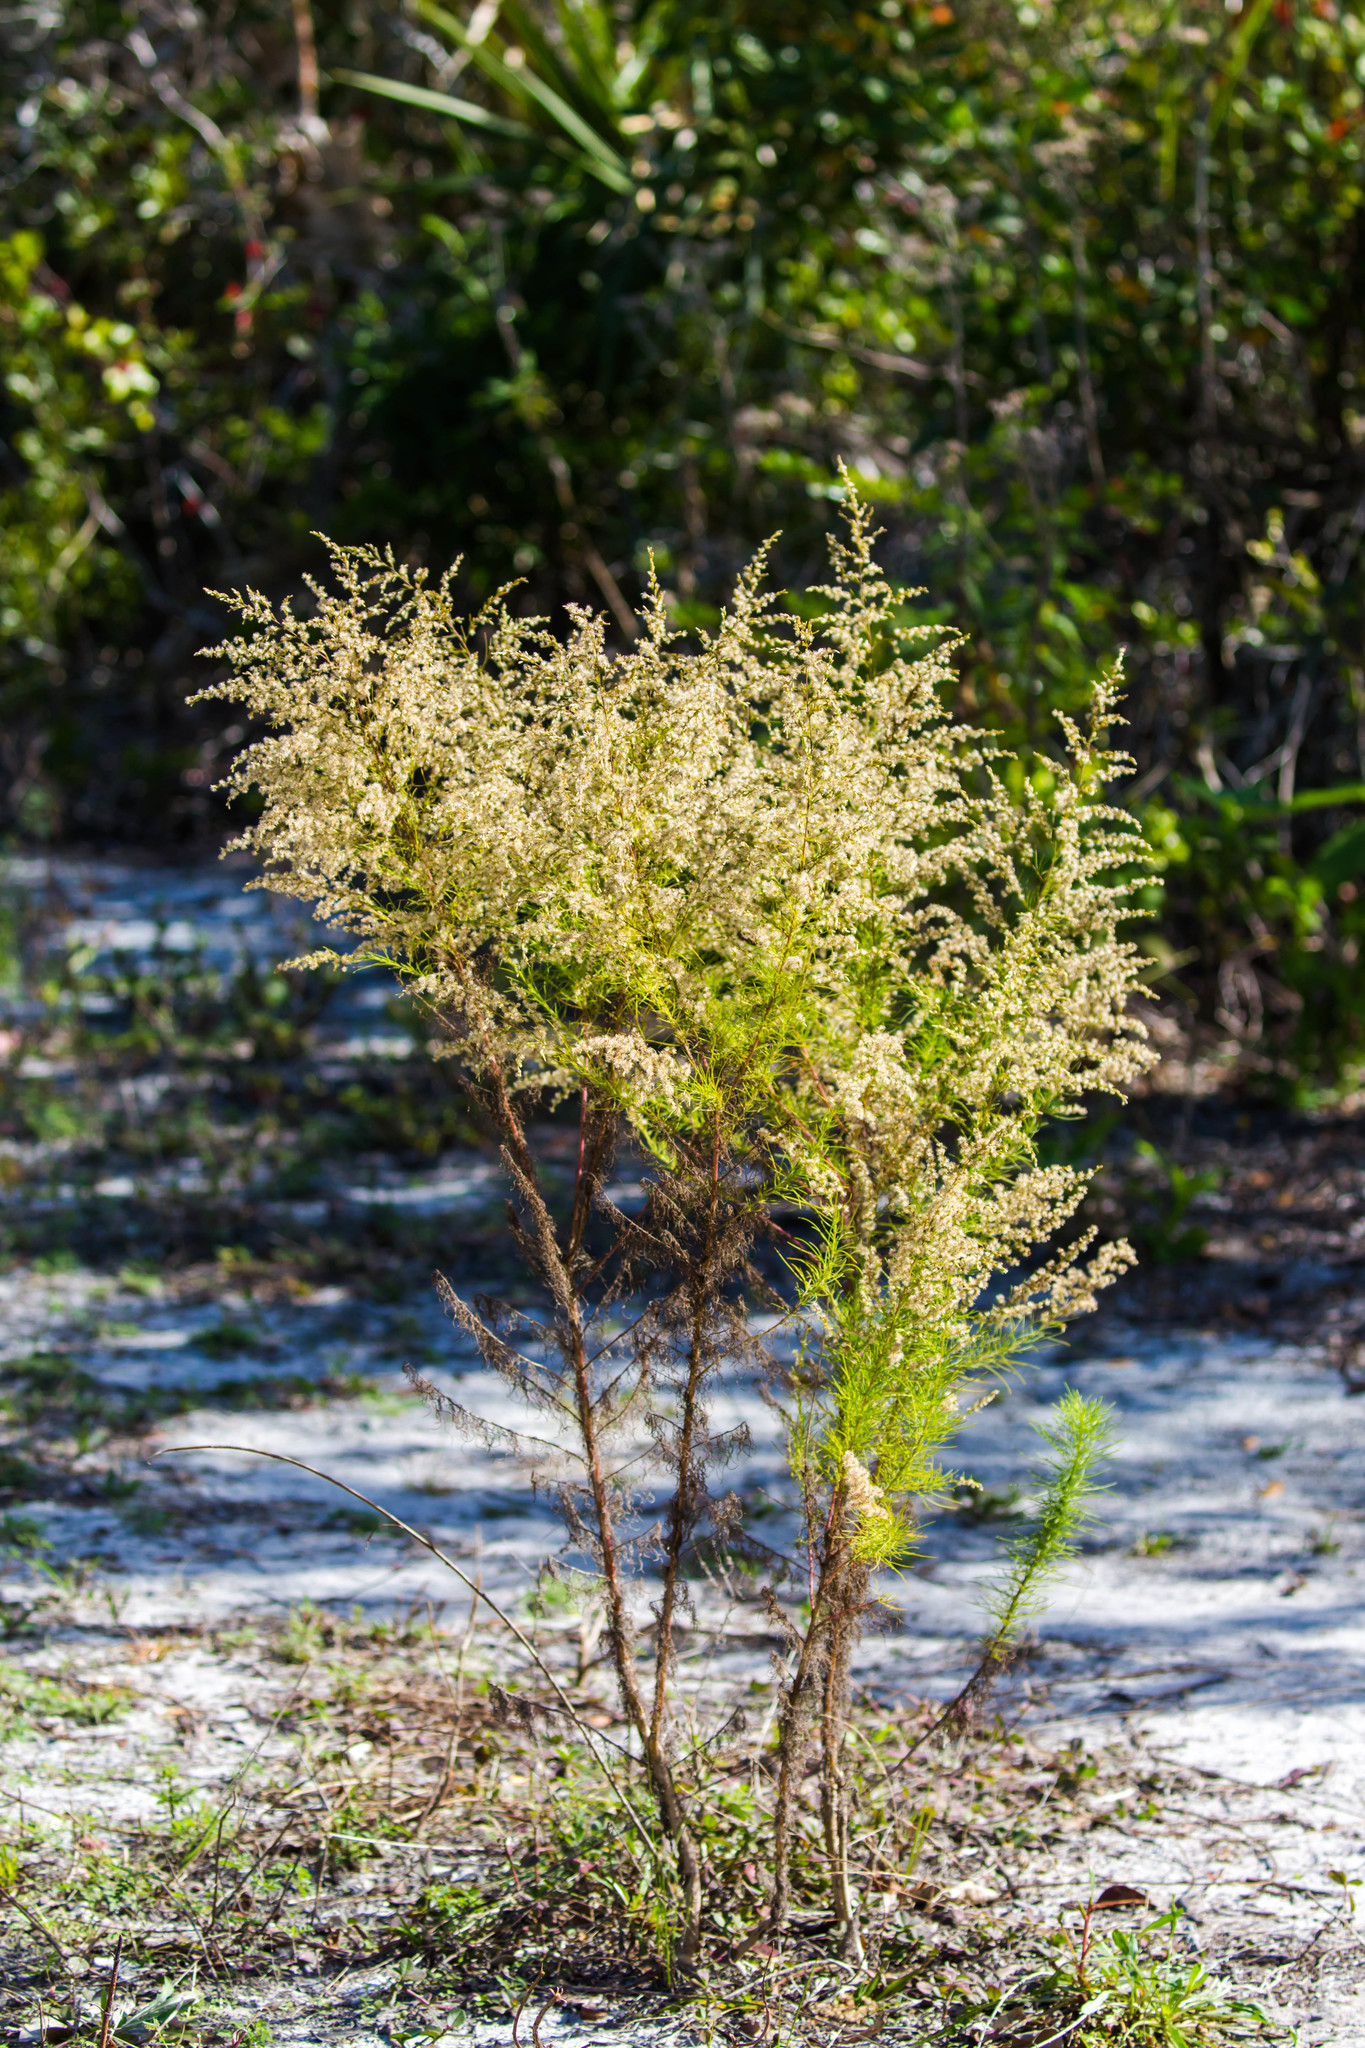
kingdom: Plantae
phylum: Tracheophyta
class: Magnoliopsida
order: Asterales
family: Asteraceae
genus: Eupatorium
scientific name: Eupatorium capillifolium
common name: Dog-fennel
